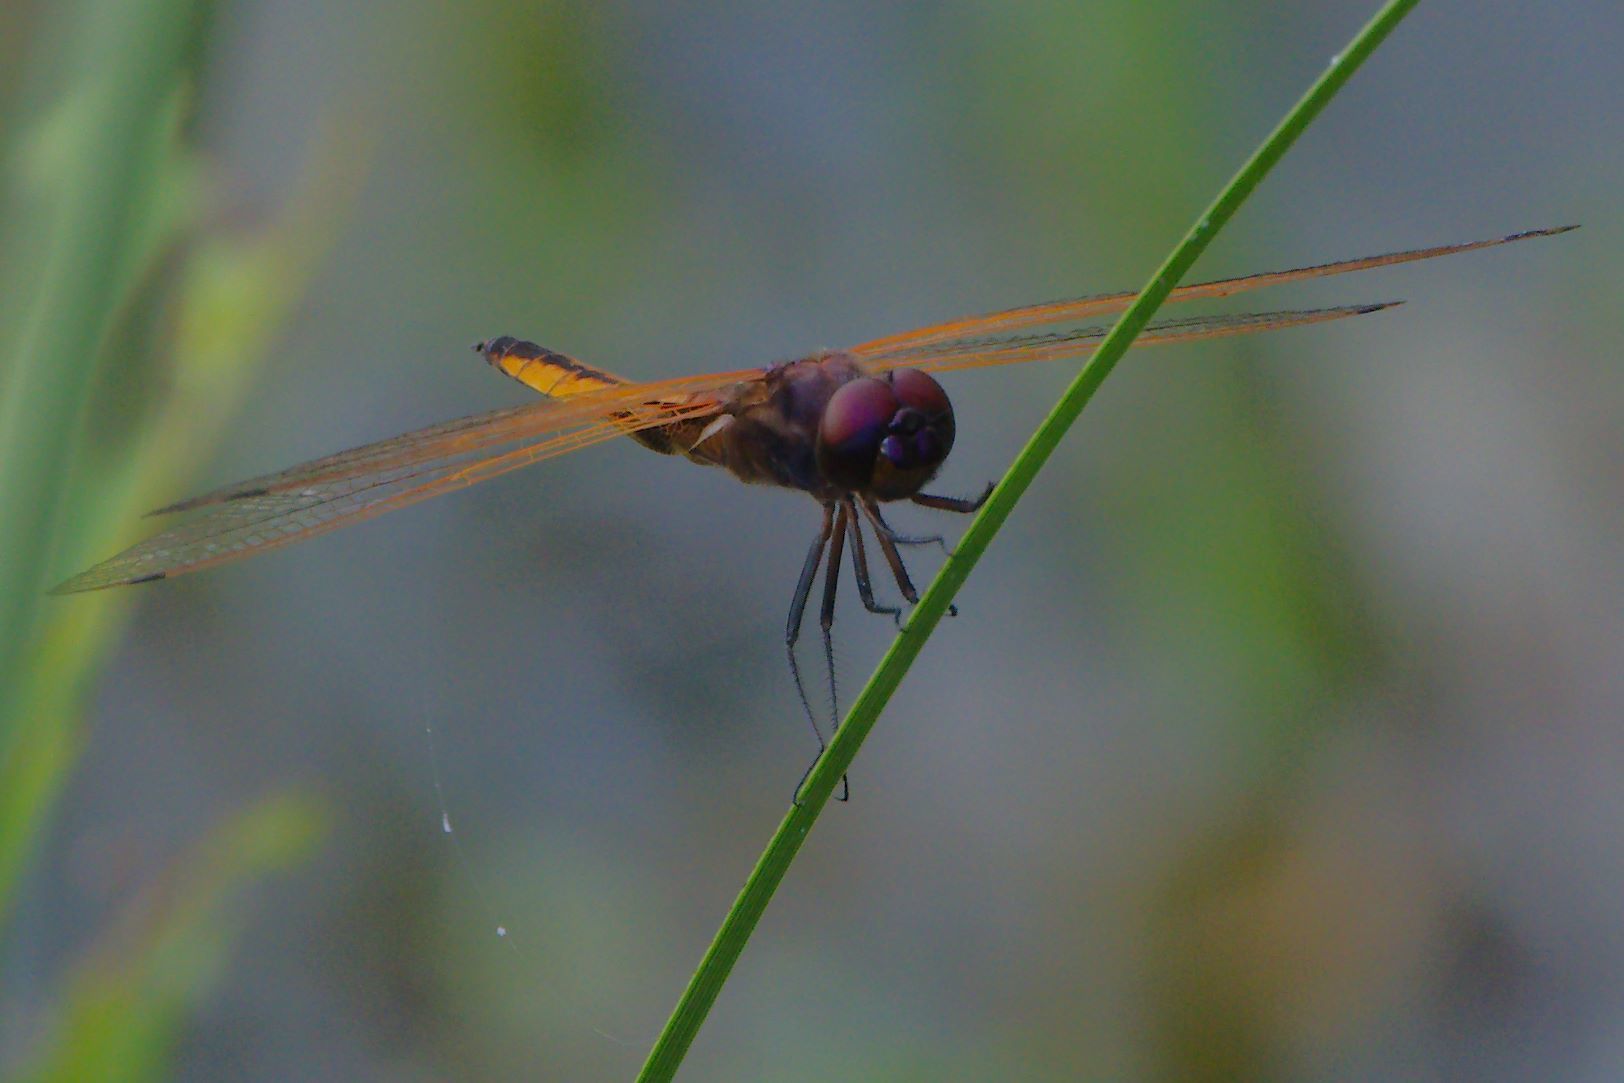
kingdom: Animalia
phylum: Arthropoda
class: Insecta
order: Odonata
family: Libellulidae
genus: Miathyria
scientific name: Miathyria marcella
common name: Hyacinth glider
